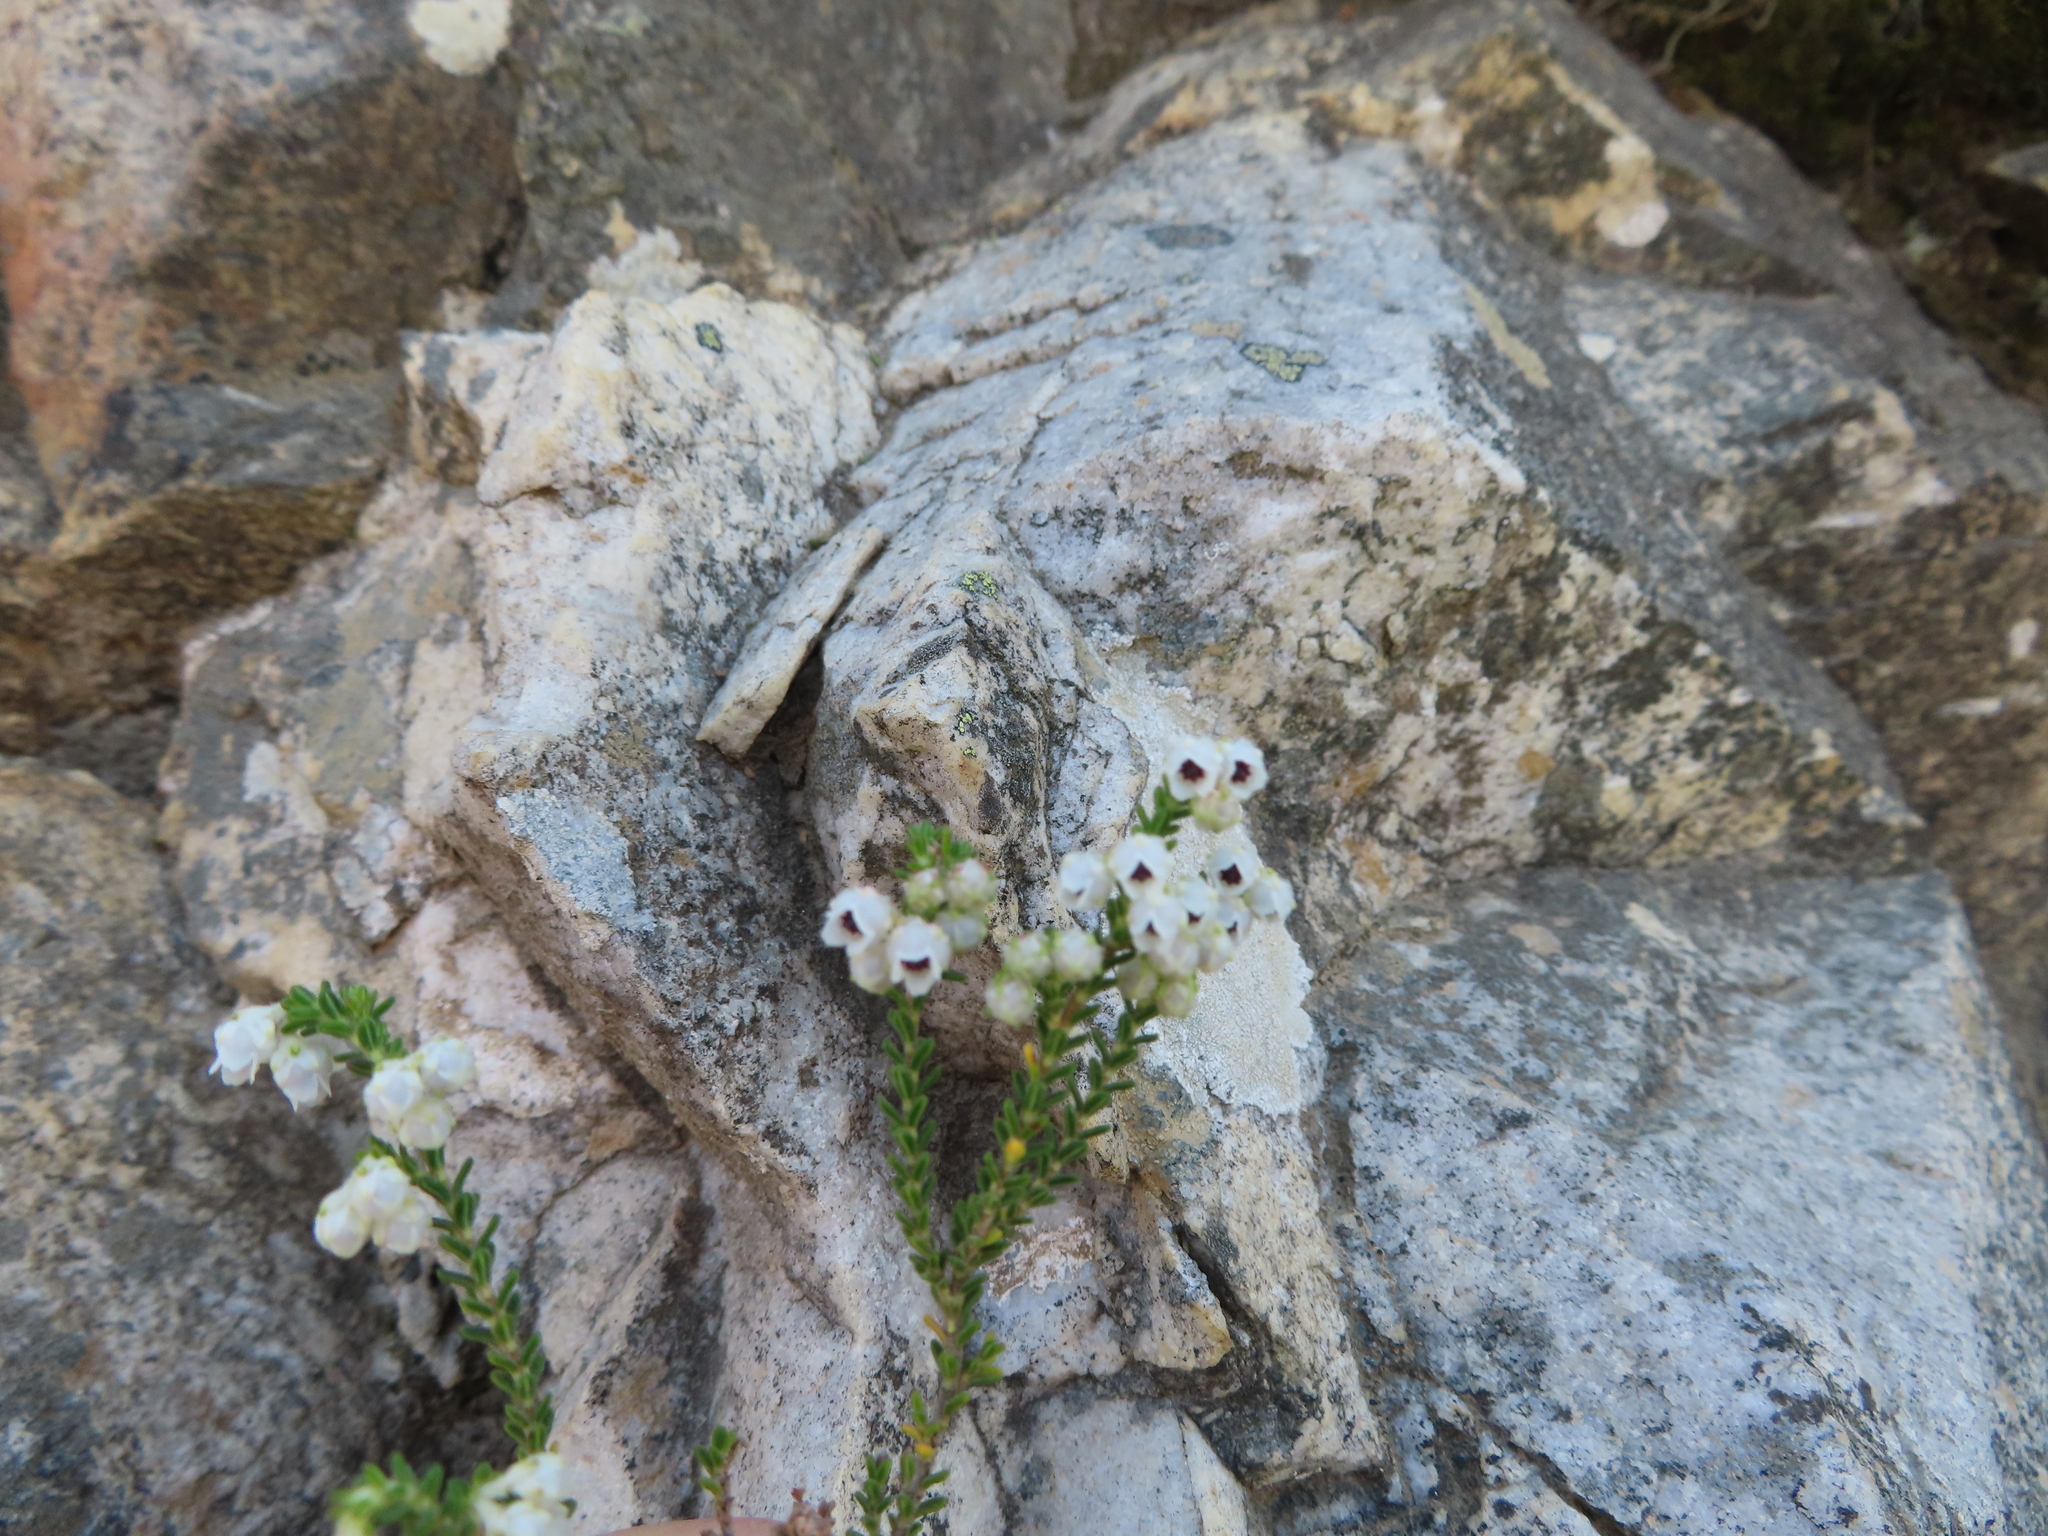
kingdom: Plantae
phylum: Tracheophyta
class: Magnoliopsida
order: Ericales
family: Ericaceae
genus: Erica
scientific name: Erica fimbriata
